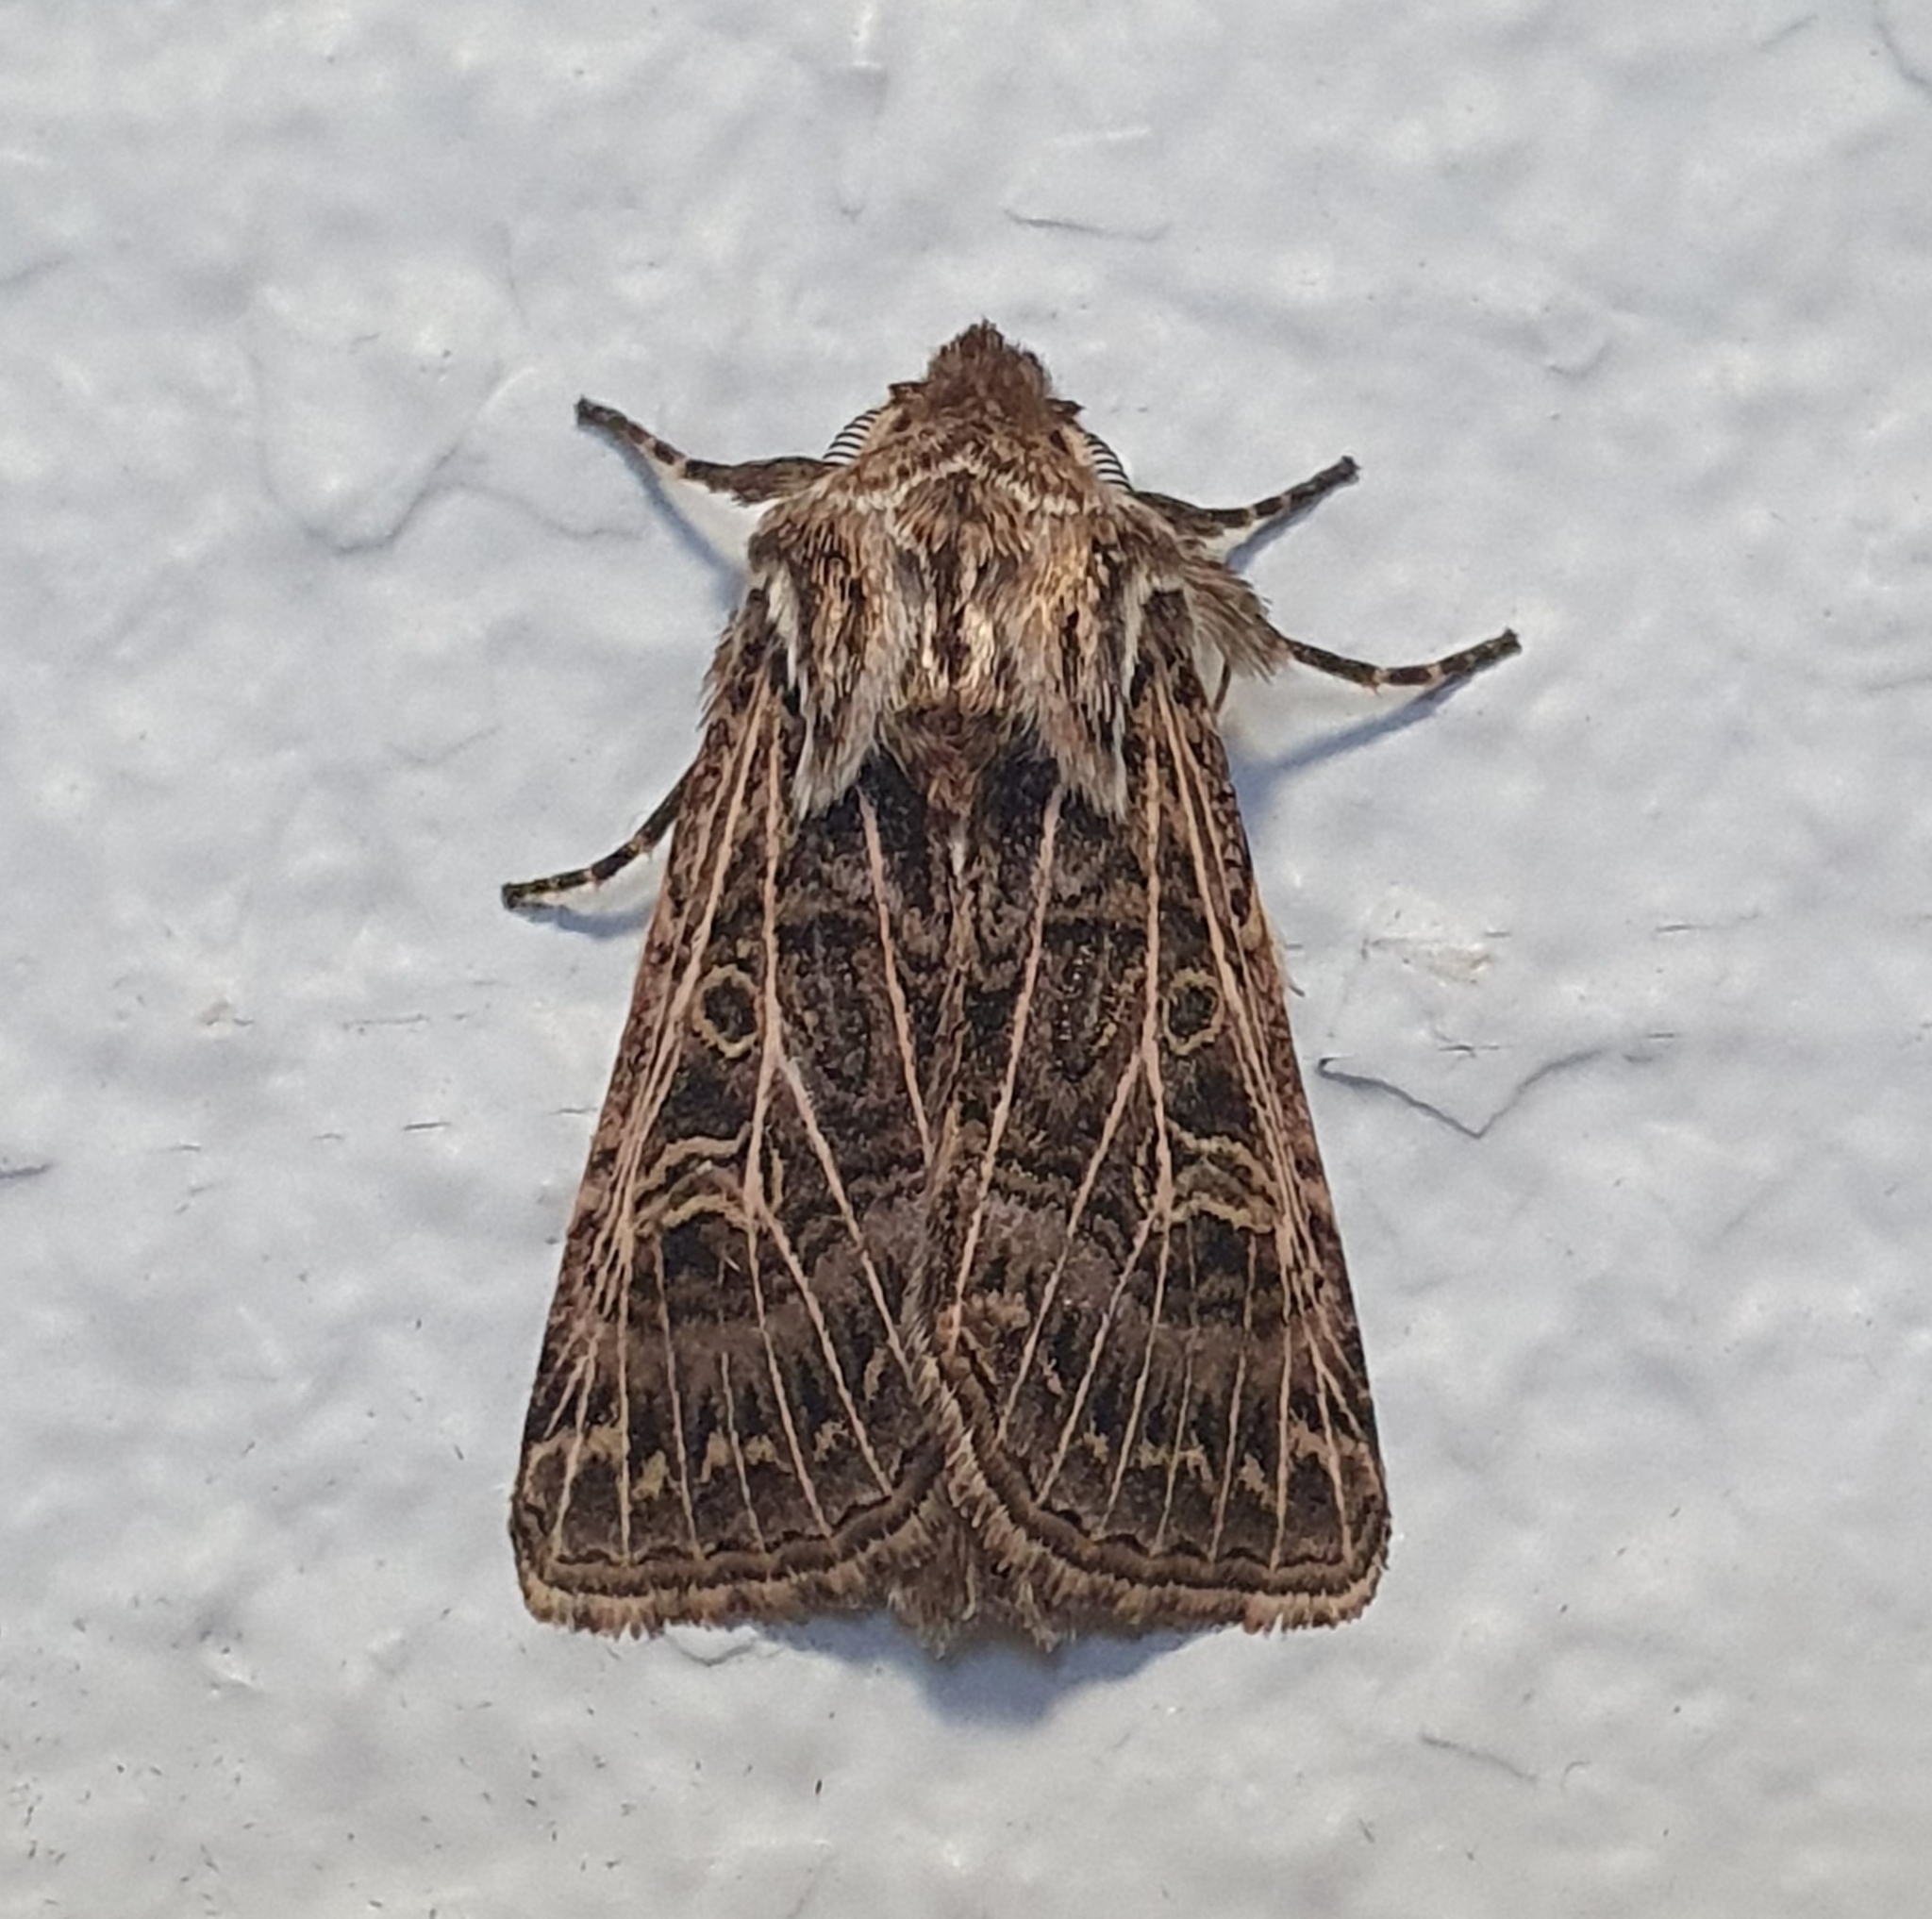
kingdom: Animalia
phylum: Arthropoda
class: Insecta
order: Lepidoptera
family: Noctuidae
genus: Tholera
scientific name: Tholera decimalis
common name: Feathered gothic
